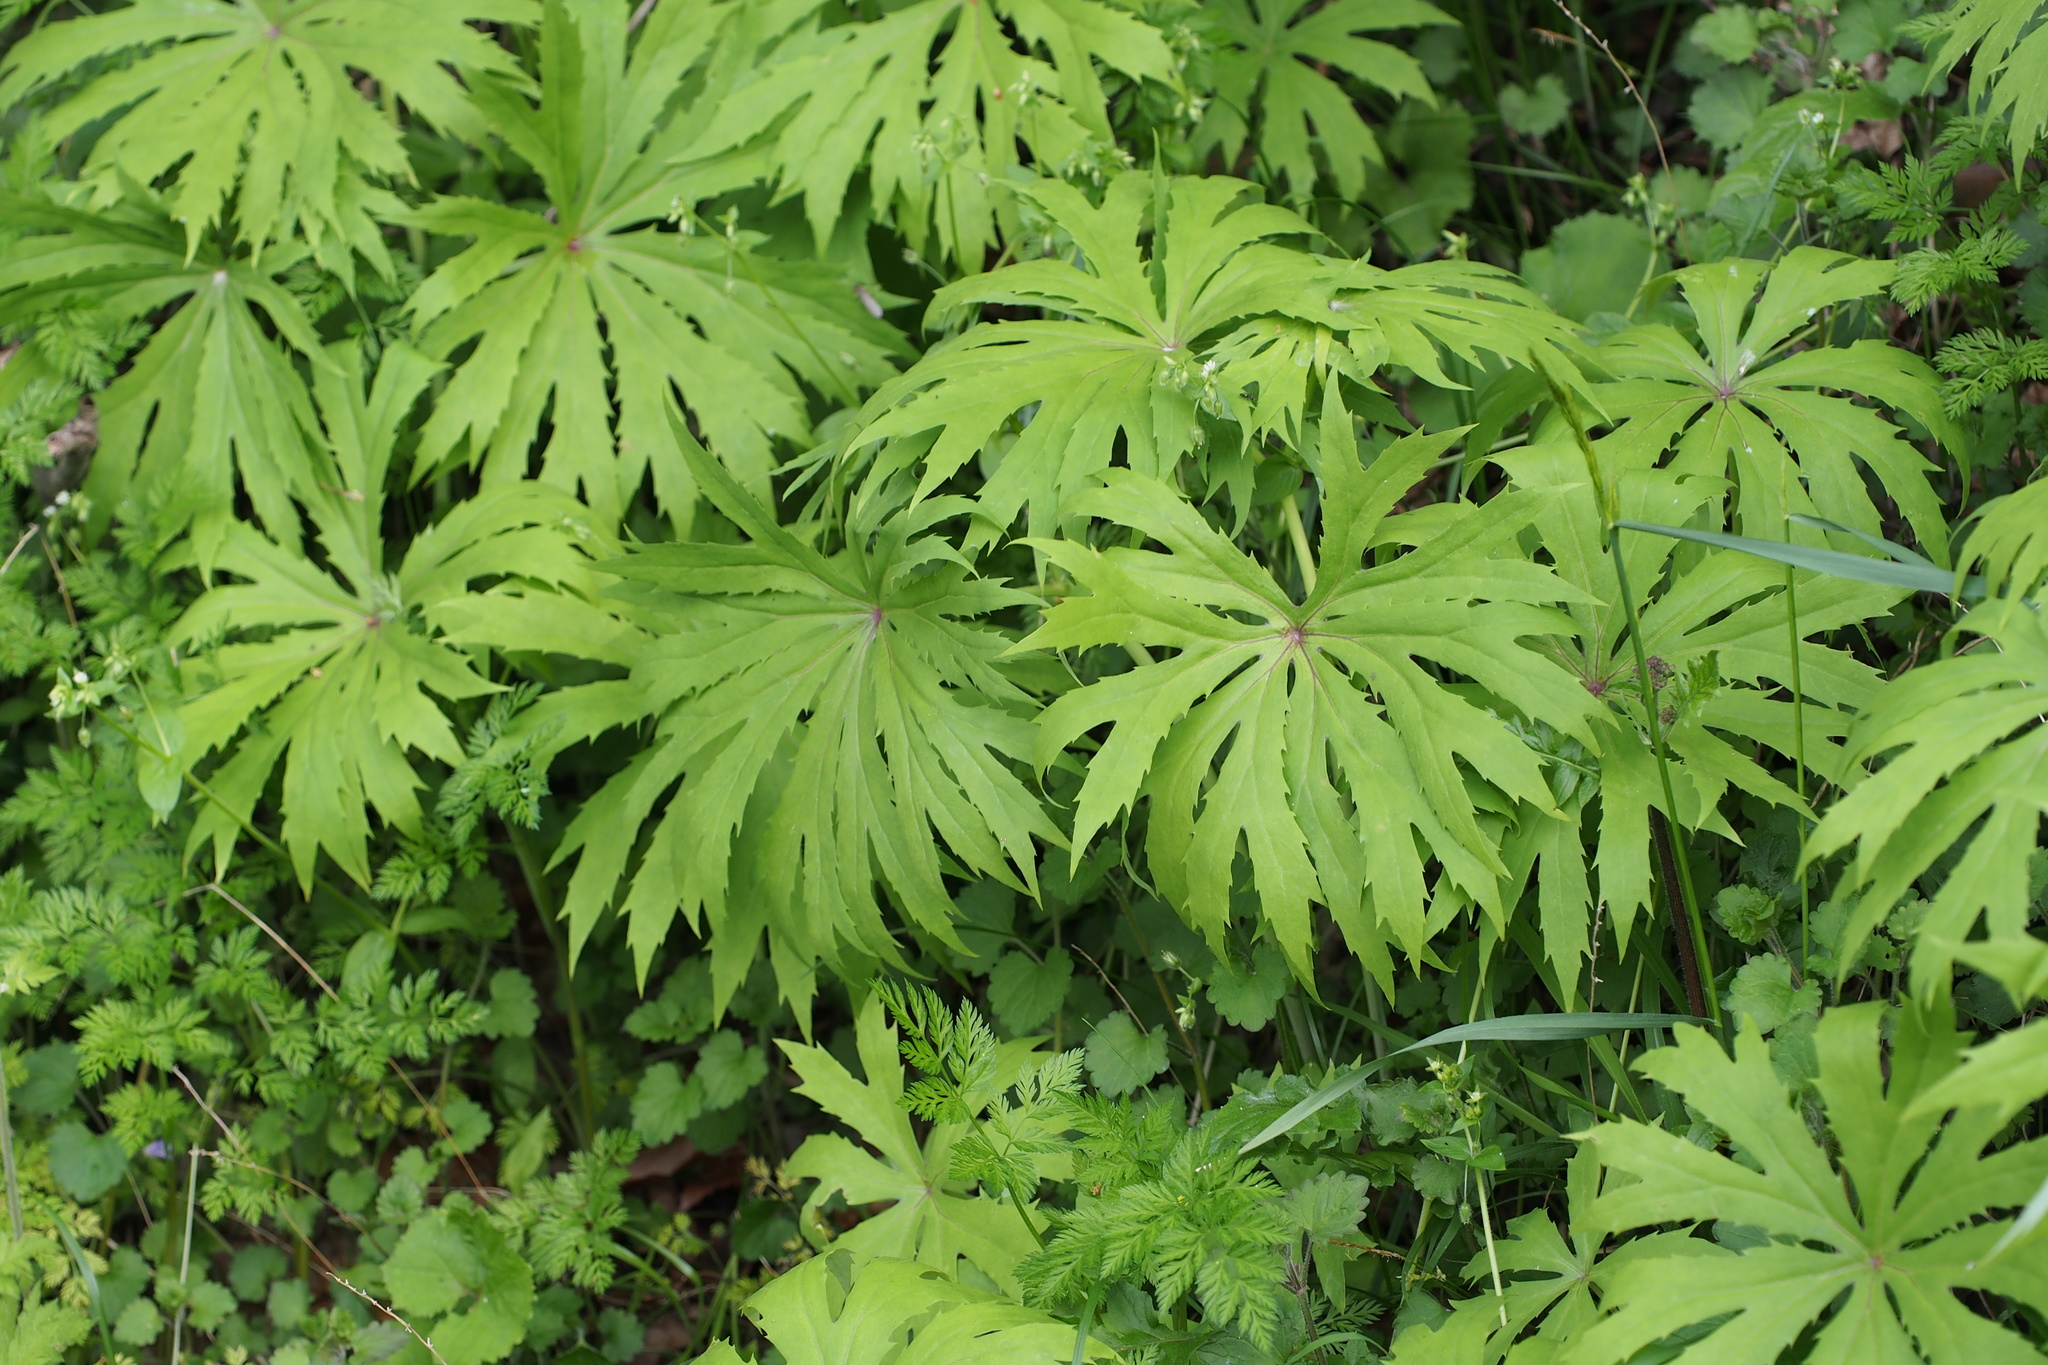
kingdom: Plantae
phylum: Tracheophyta
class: Magnoliopsida
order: Asterales
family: Asteraceae
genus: Syneilesis
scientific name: Syneilesis palmata
